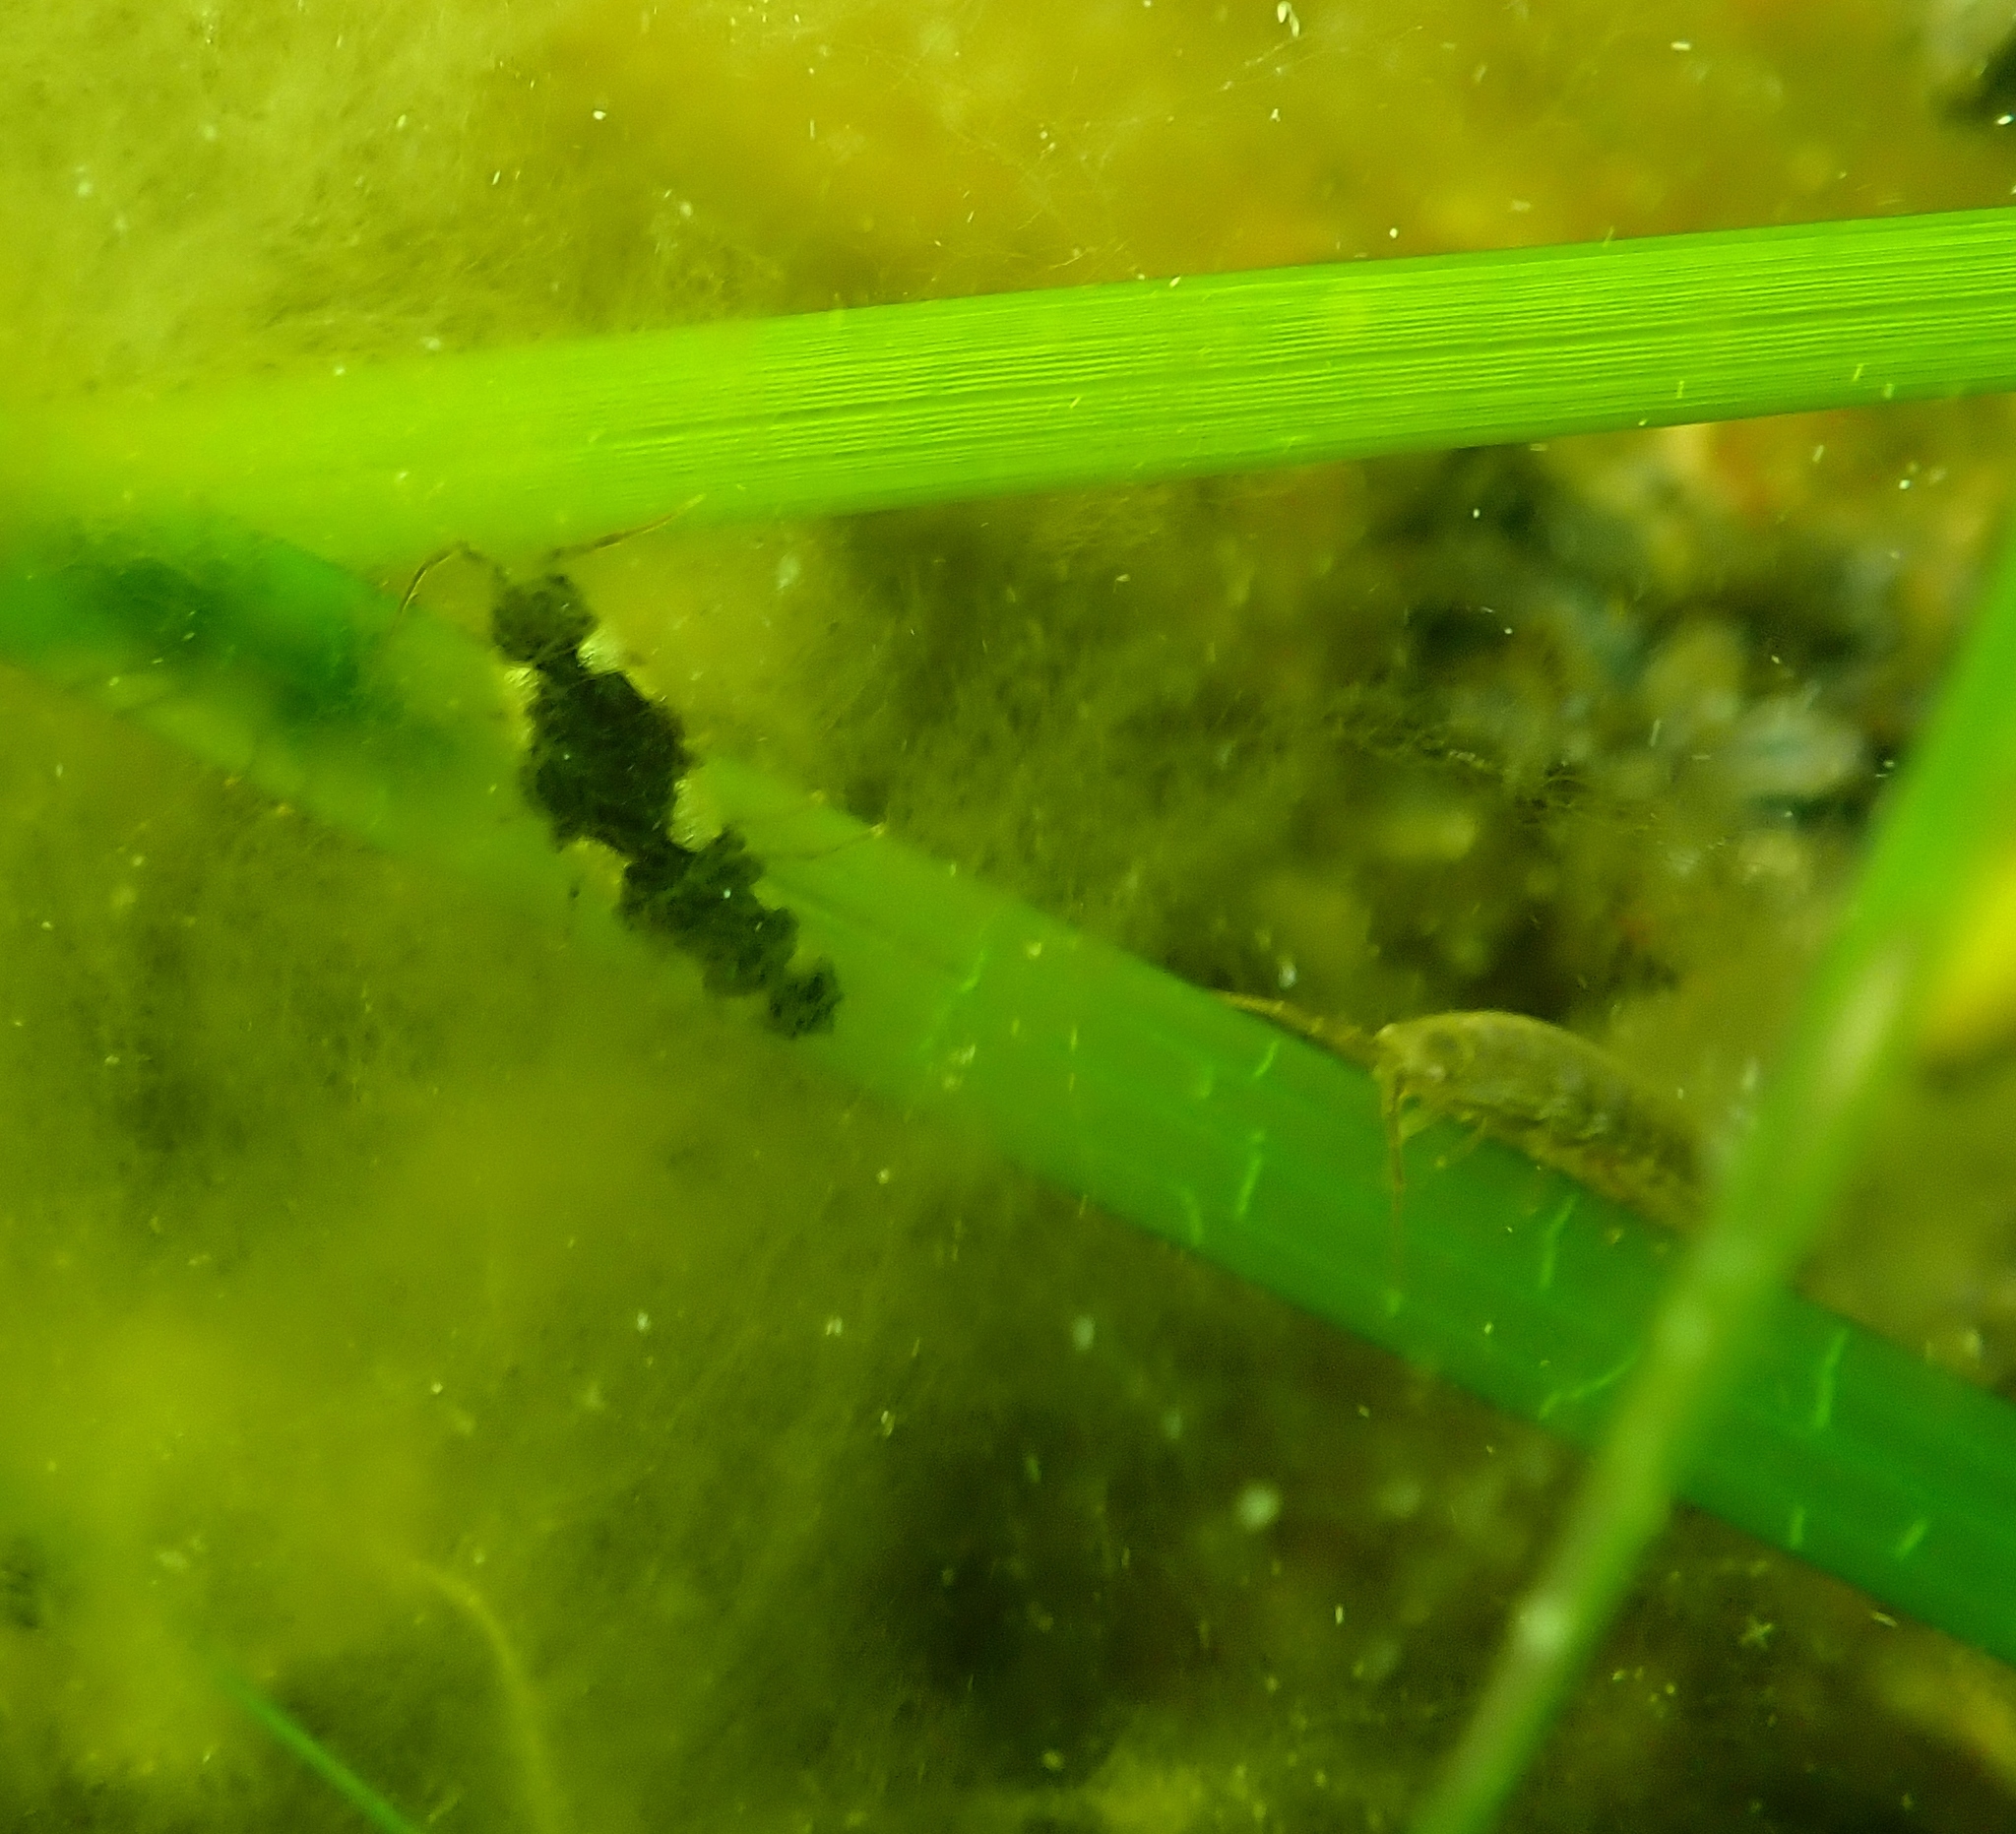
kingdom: Animalia
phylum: Arthropoda
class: Malacostraca
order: Isopoda
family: Idoteidae
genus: Idotea
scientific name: Idotea balthica
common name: Baltic isopod
